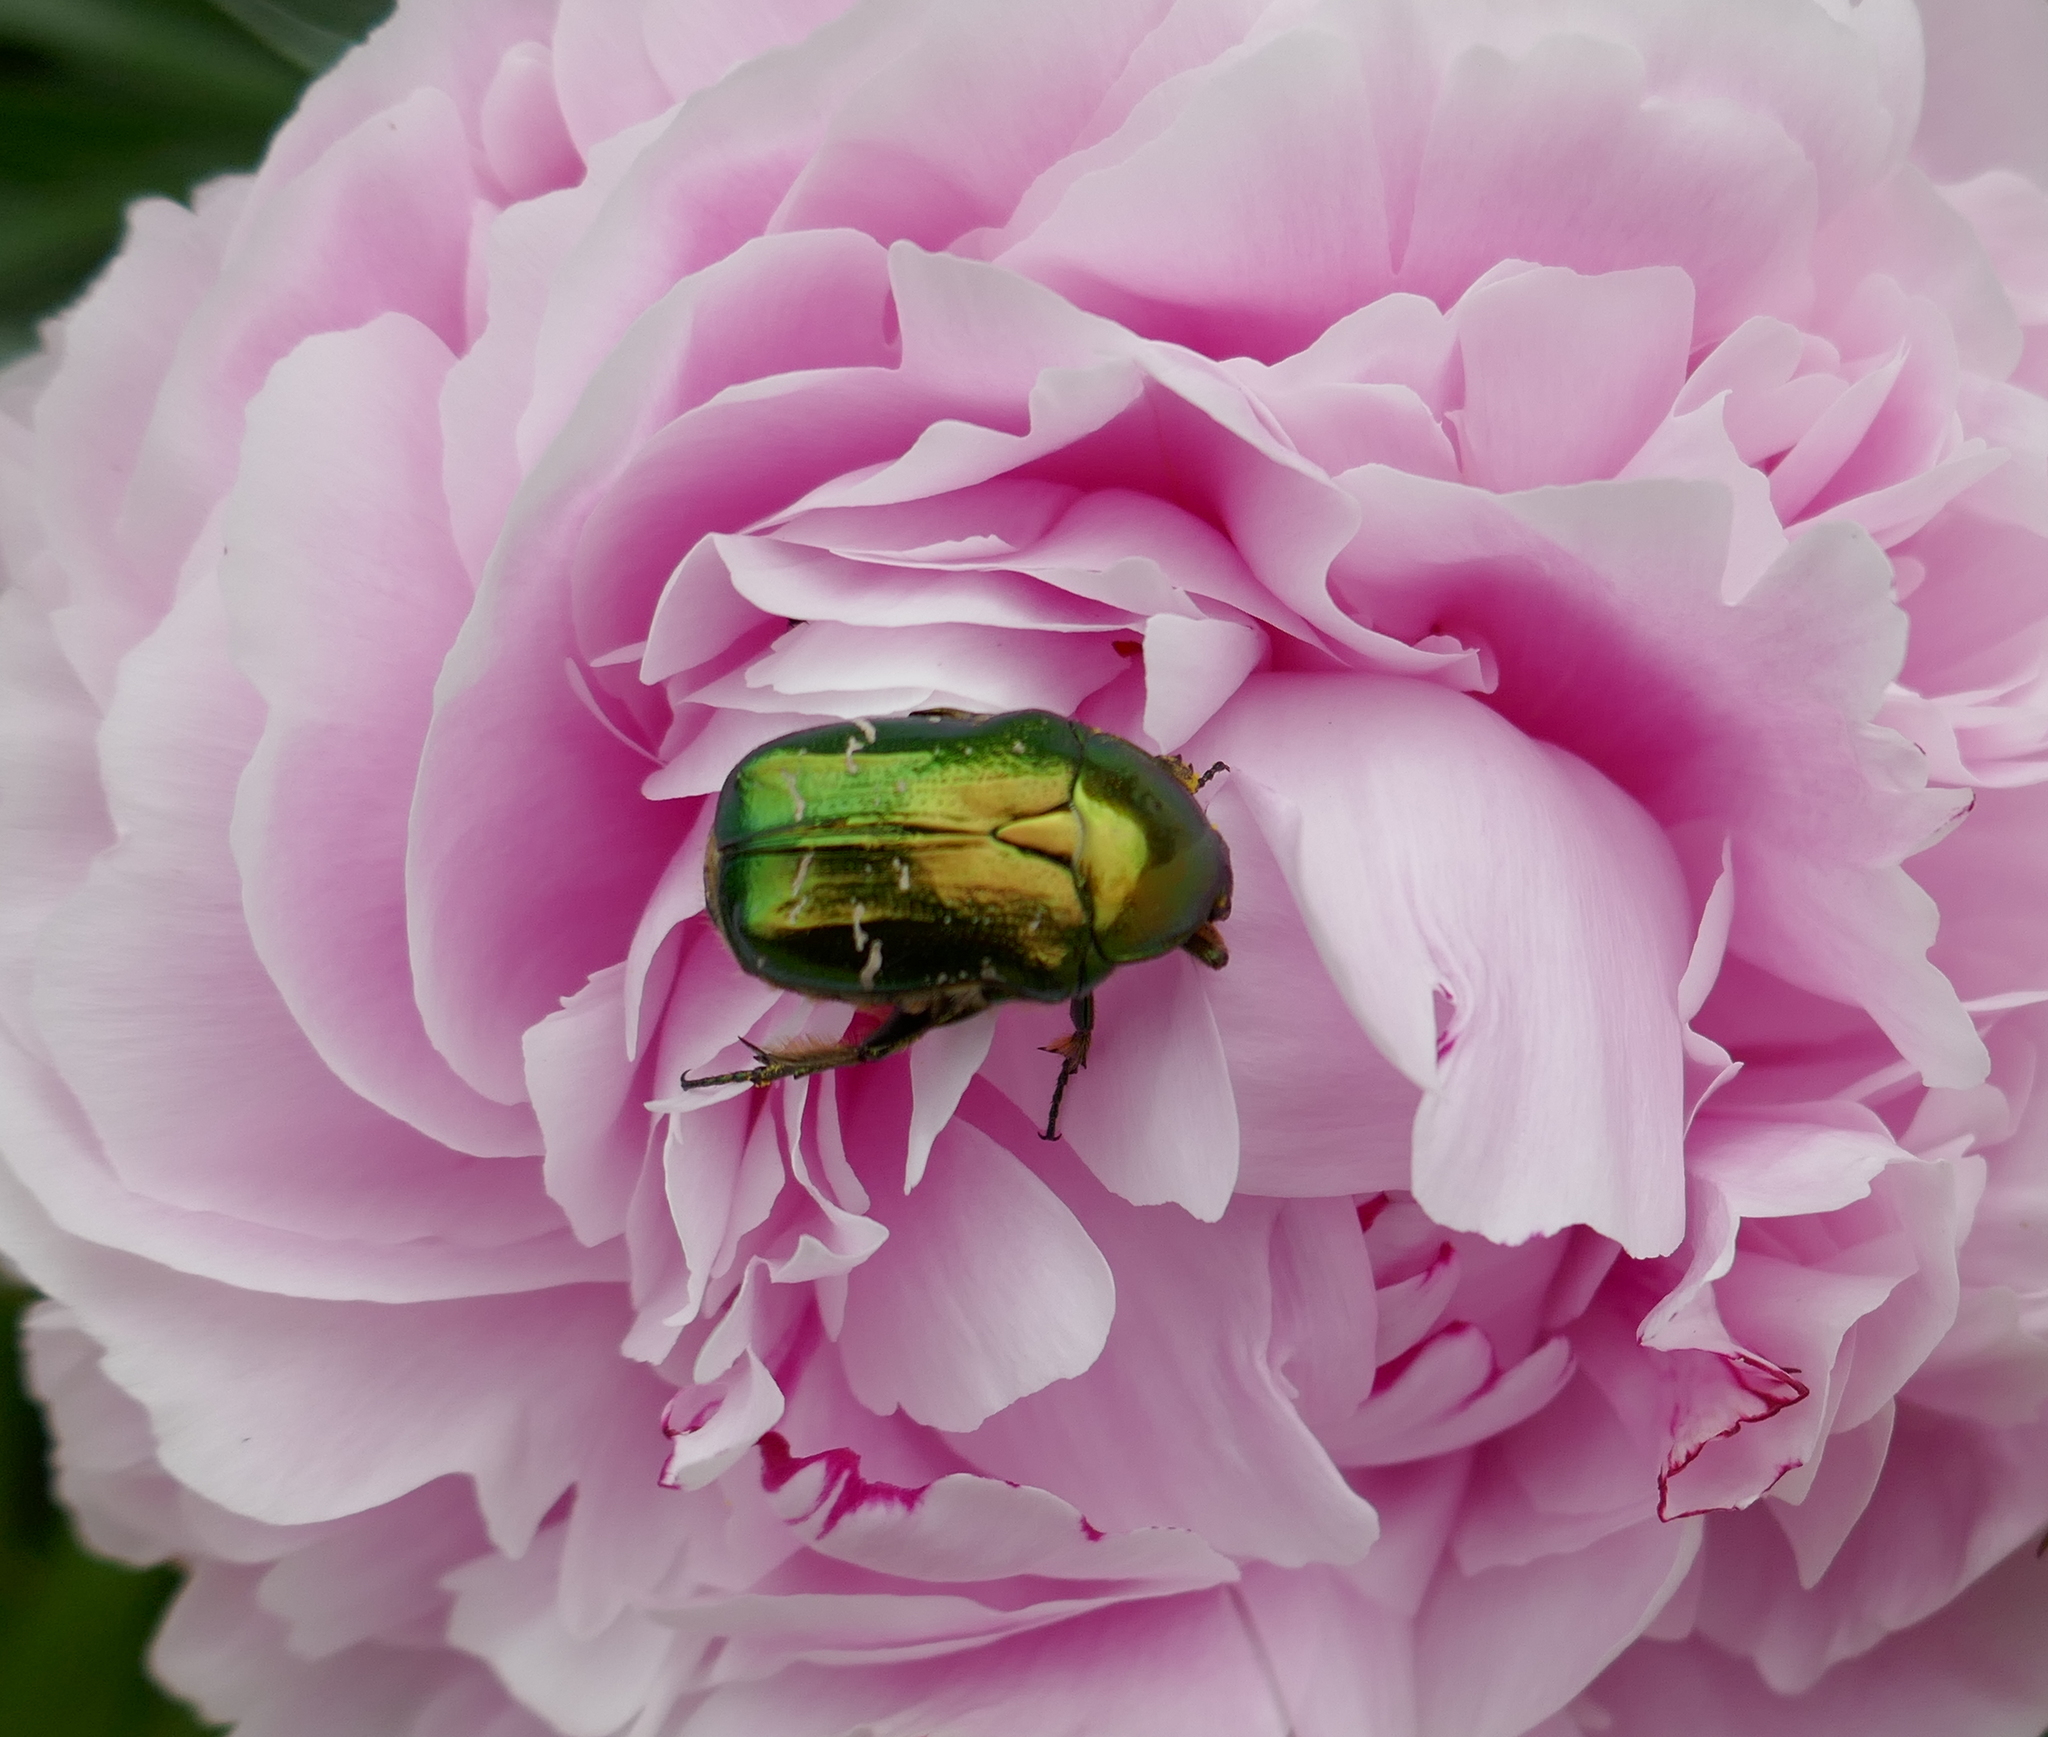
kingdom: Animalia
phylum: Arthropoda
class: Insecta
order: Coleoptera
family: Scarabaeidae
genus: Cetonia
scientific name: Cetonia aurata
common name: Rose chafer
